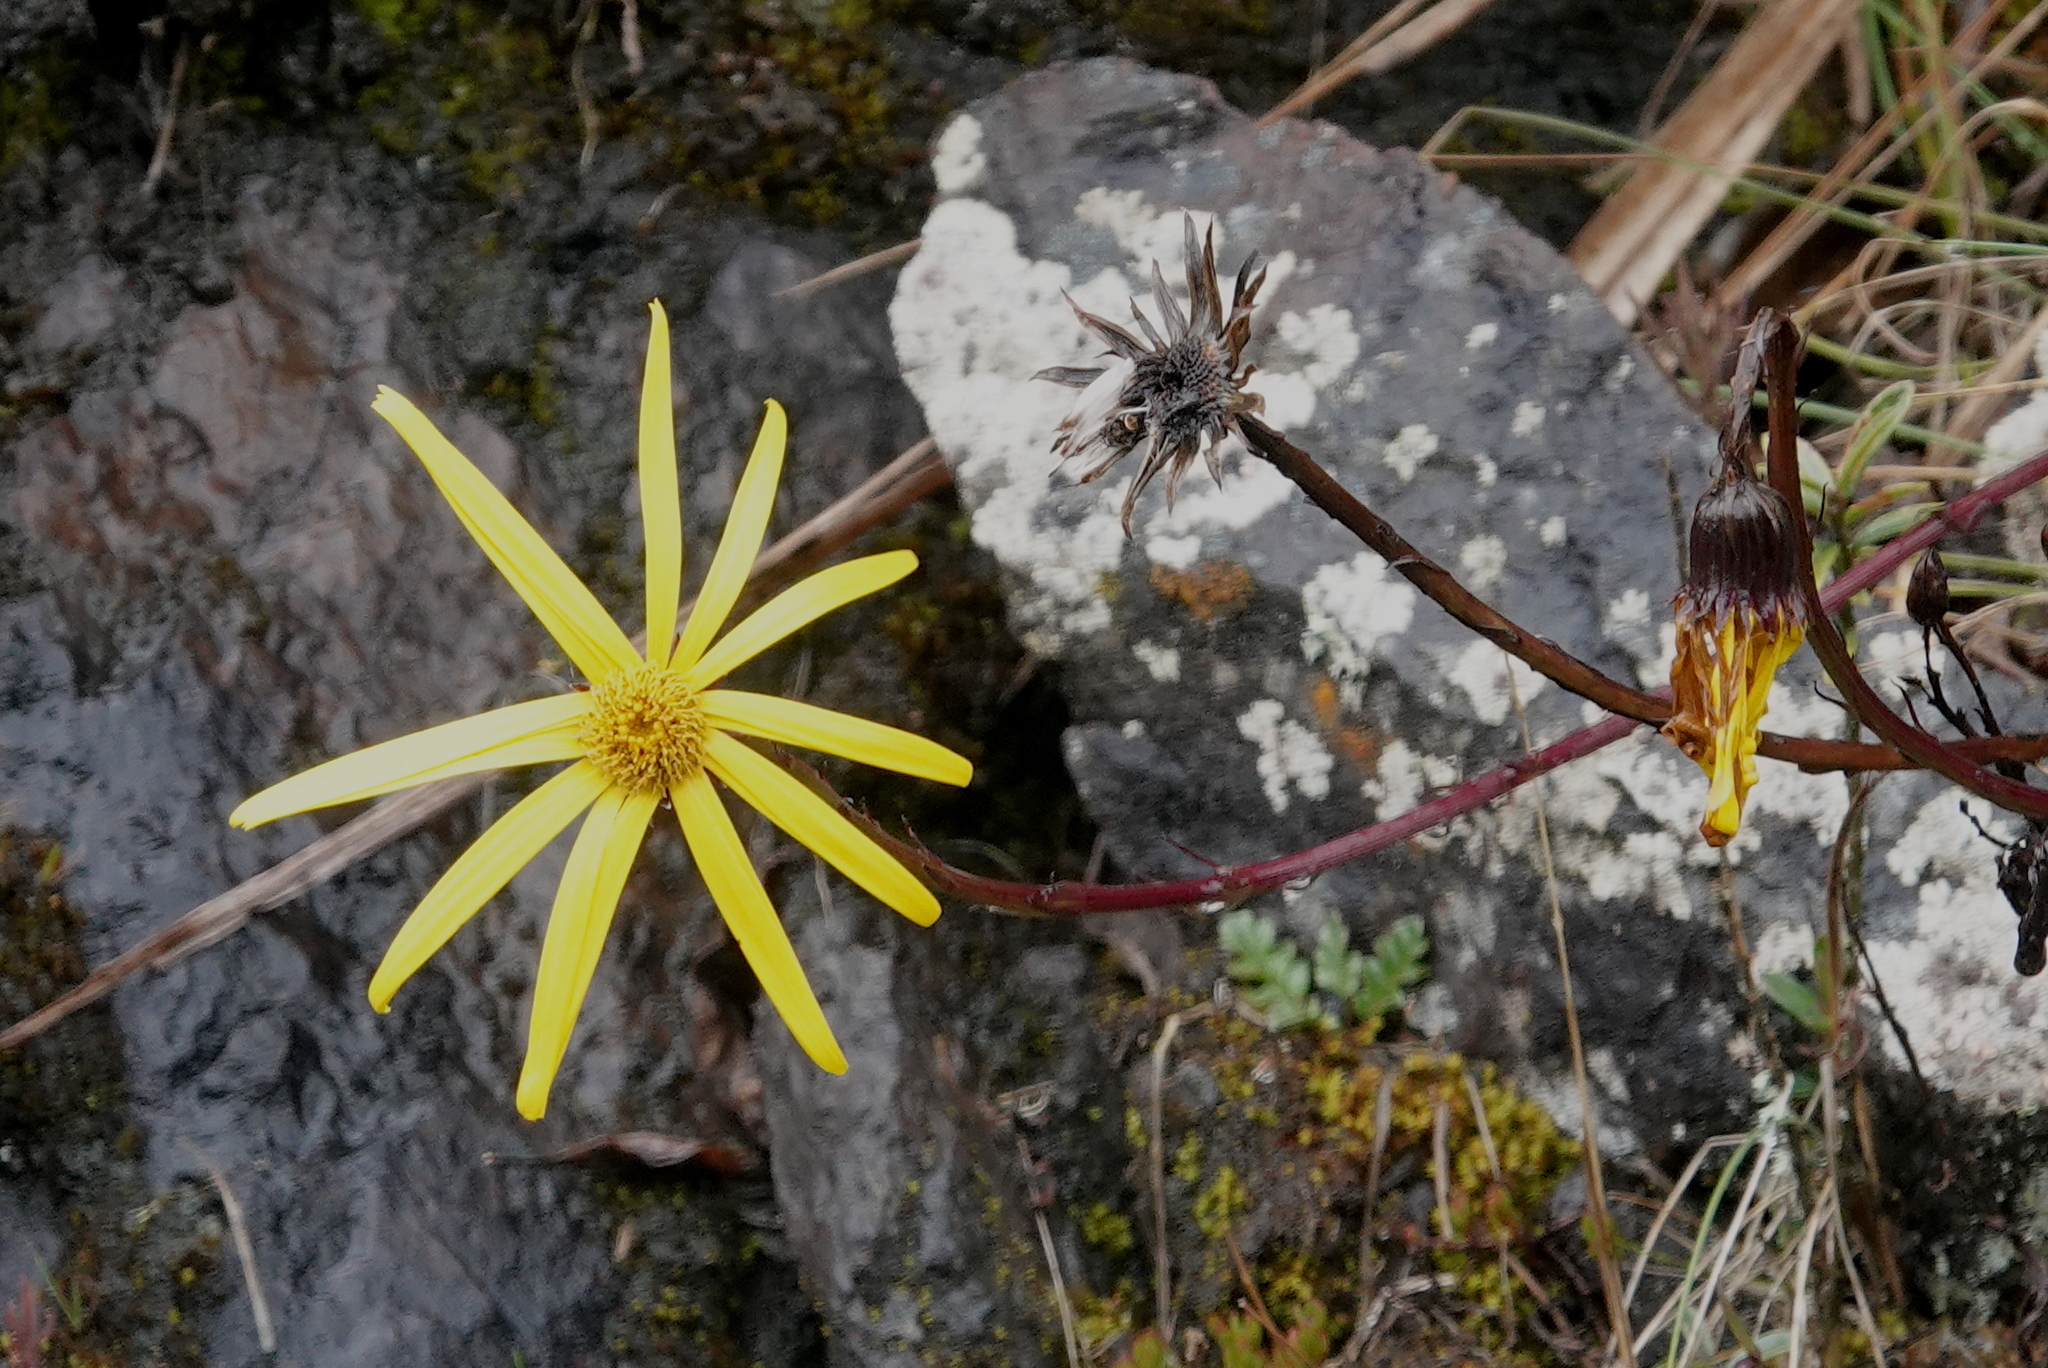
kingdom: Plantae
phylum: Tracheophyta
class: Magnoliopsida
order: Asterales
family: Asteraceae
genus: Dorobaea
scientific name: Dorobaea pimpinellifolia
